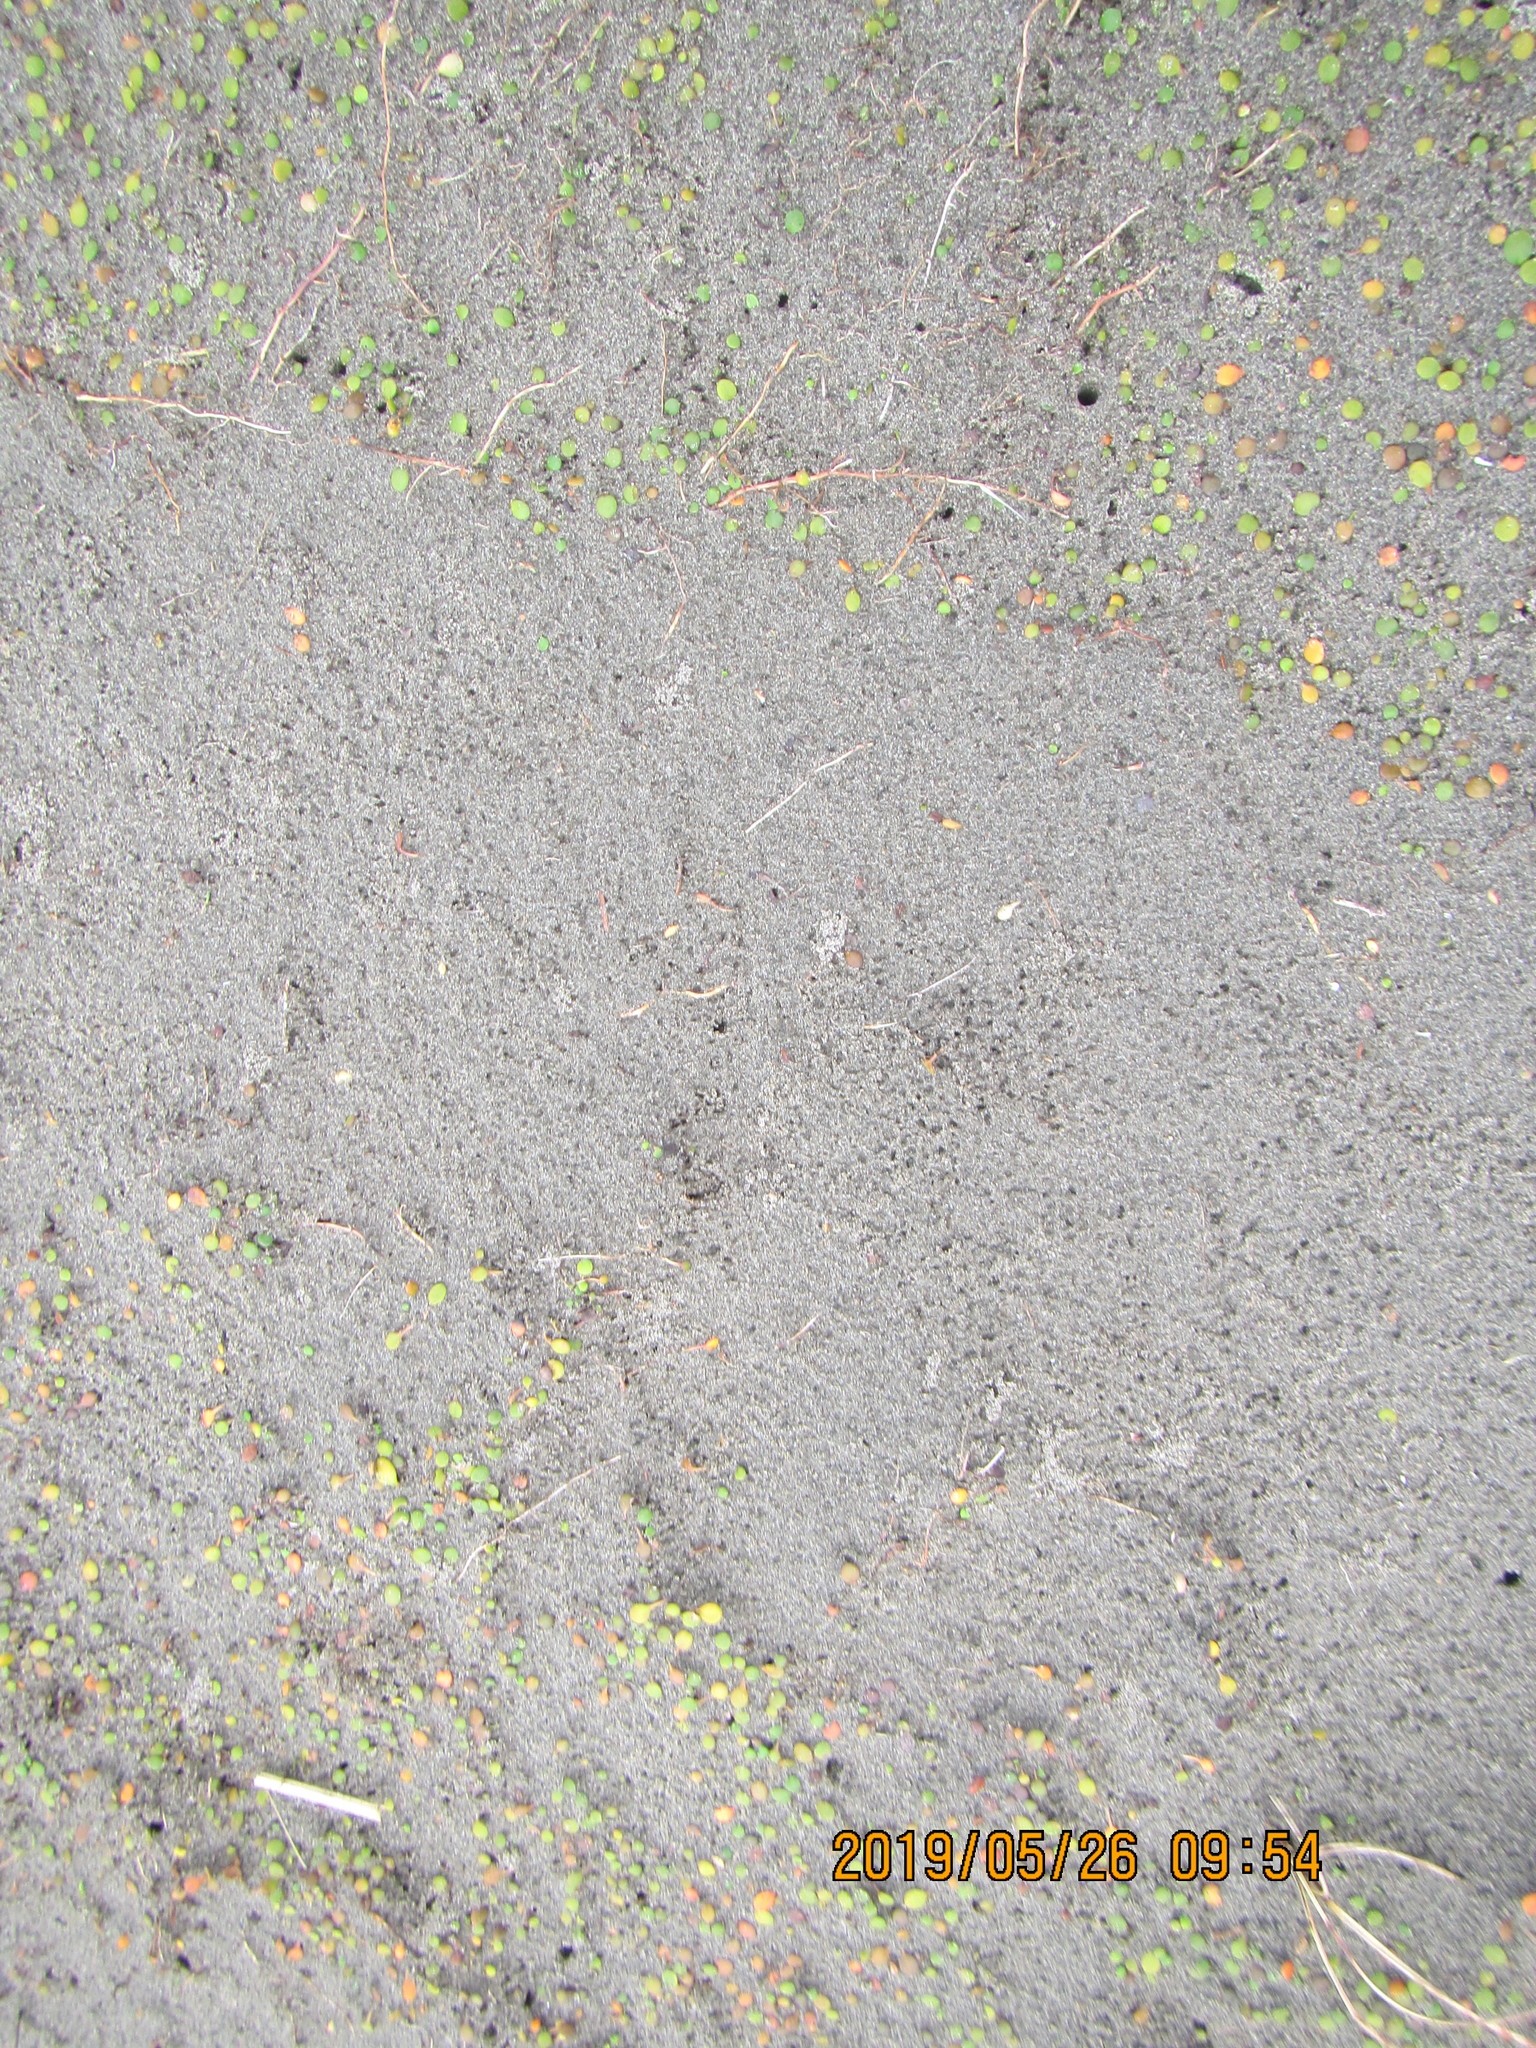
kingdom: Plantae
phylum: Tracheophyta
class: Magnoliopsida
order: Asterales
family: Goodeniaceae
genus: Goodenia
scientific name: Goodenia heenanii
